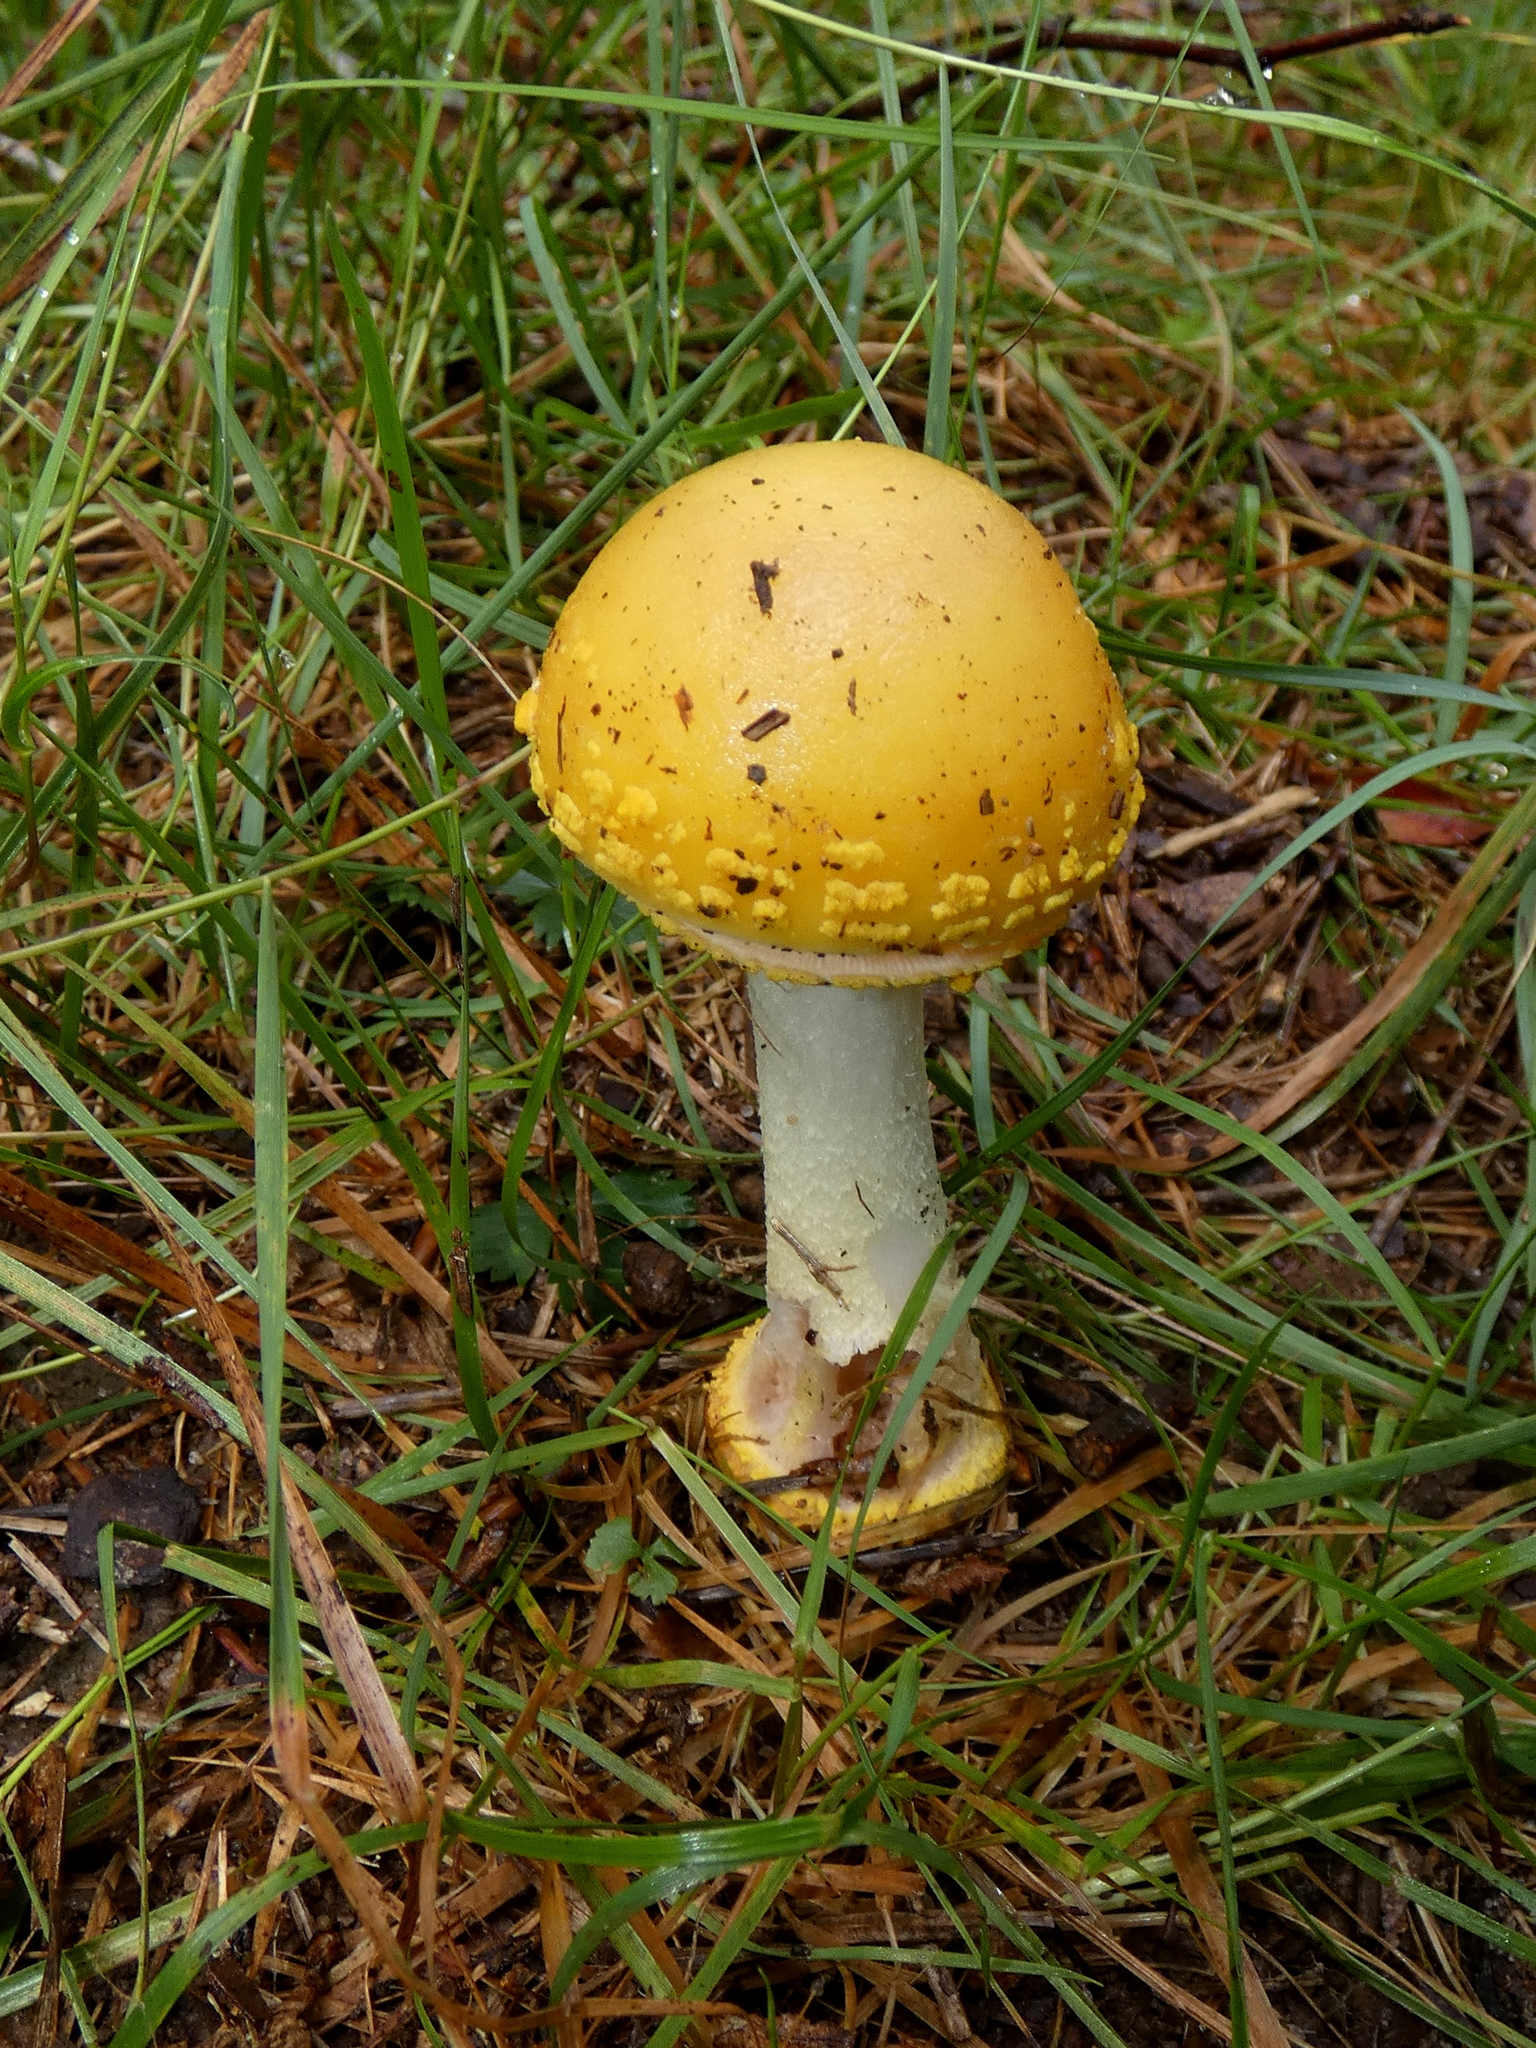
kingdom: Fungi
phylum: Basidiomycota
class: Agaricomycetes
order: Agaricales
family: Amanitaceae
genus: Amanita
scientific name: Amanita flavorubens
